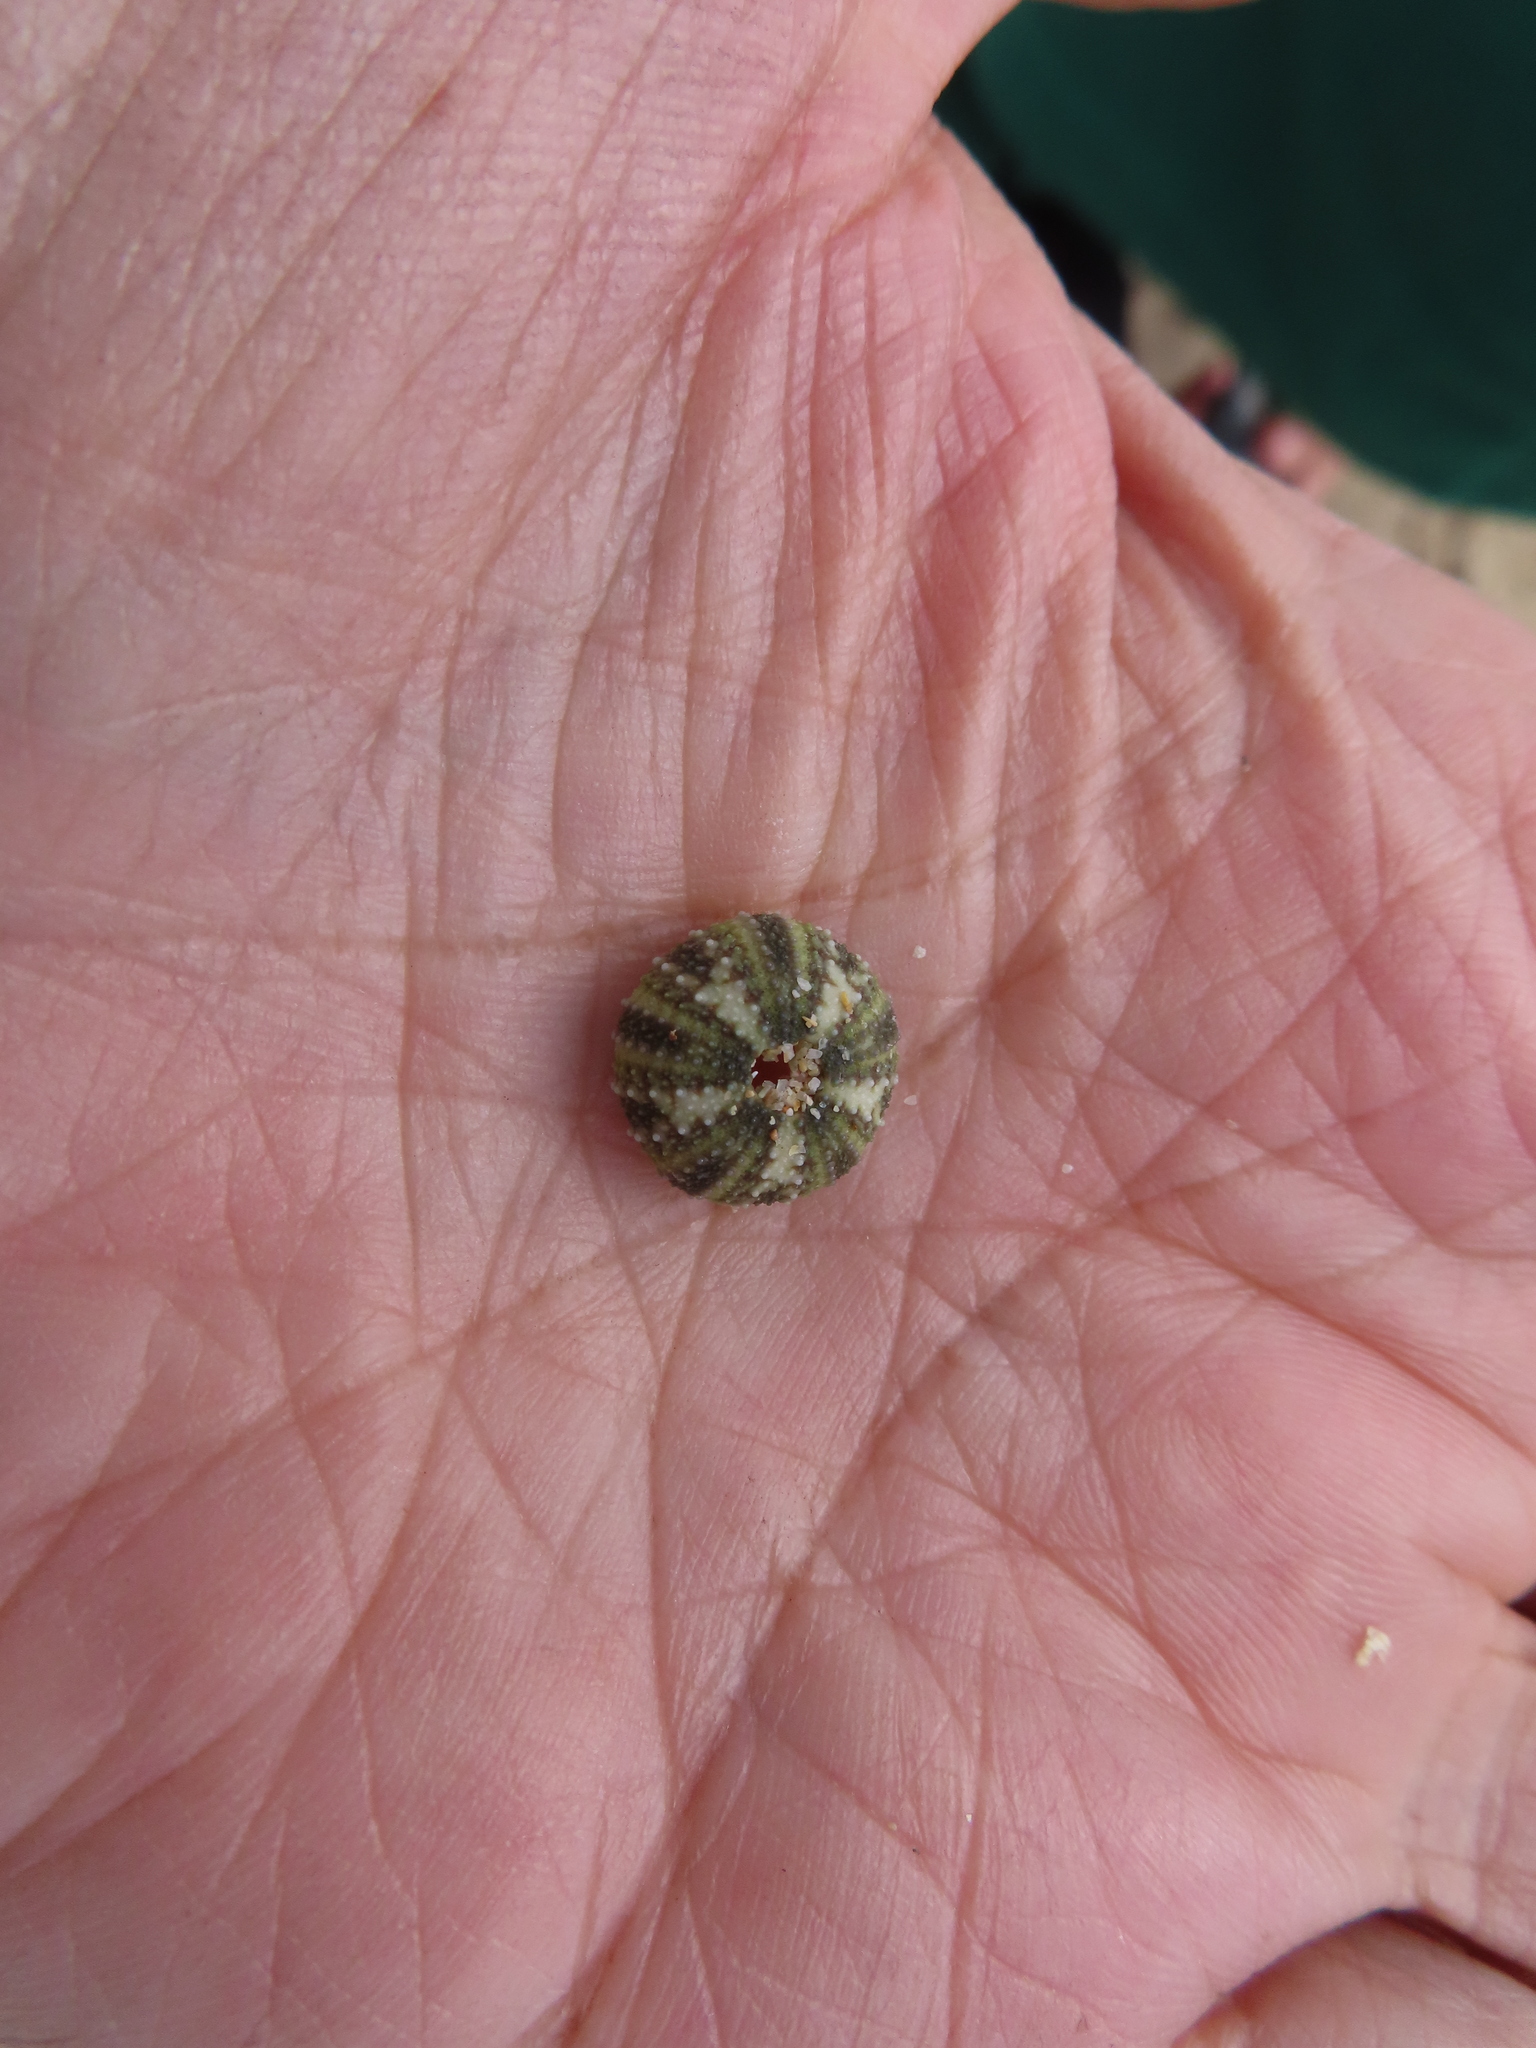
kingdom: Animalia
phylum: Echinodermata
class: Echinoidea
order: Camarodonta
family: Parechinidae
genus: Parechinus
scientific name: Parechinus angulosus
